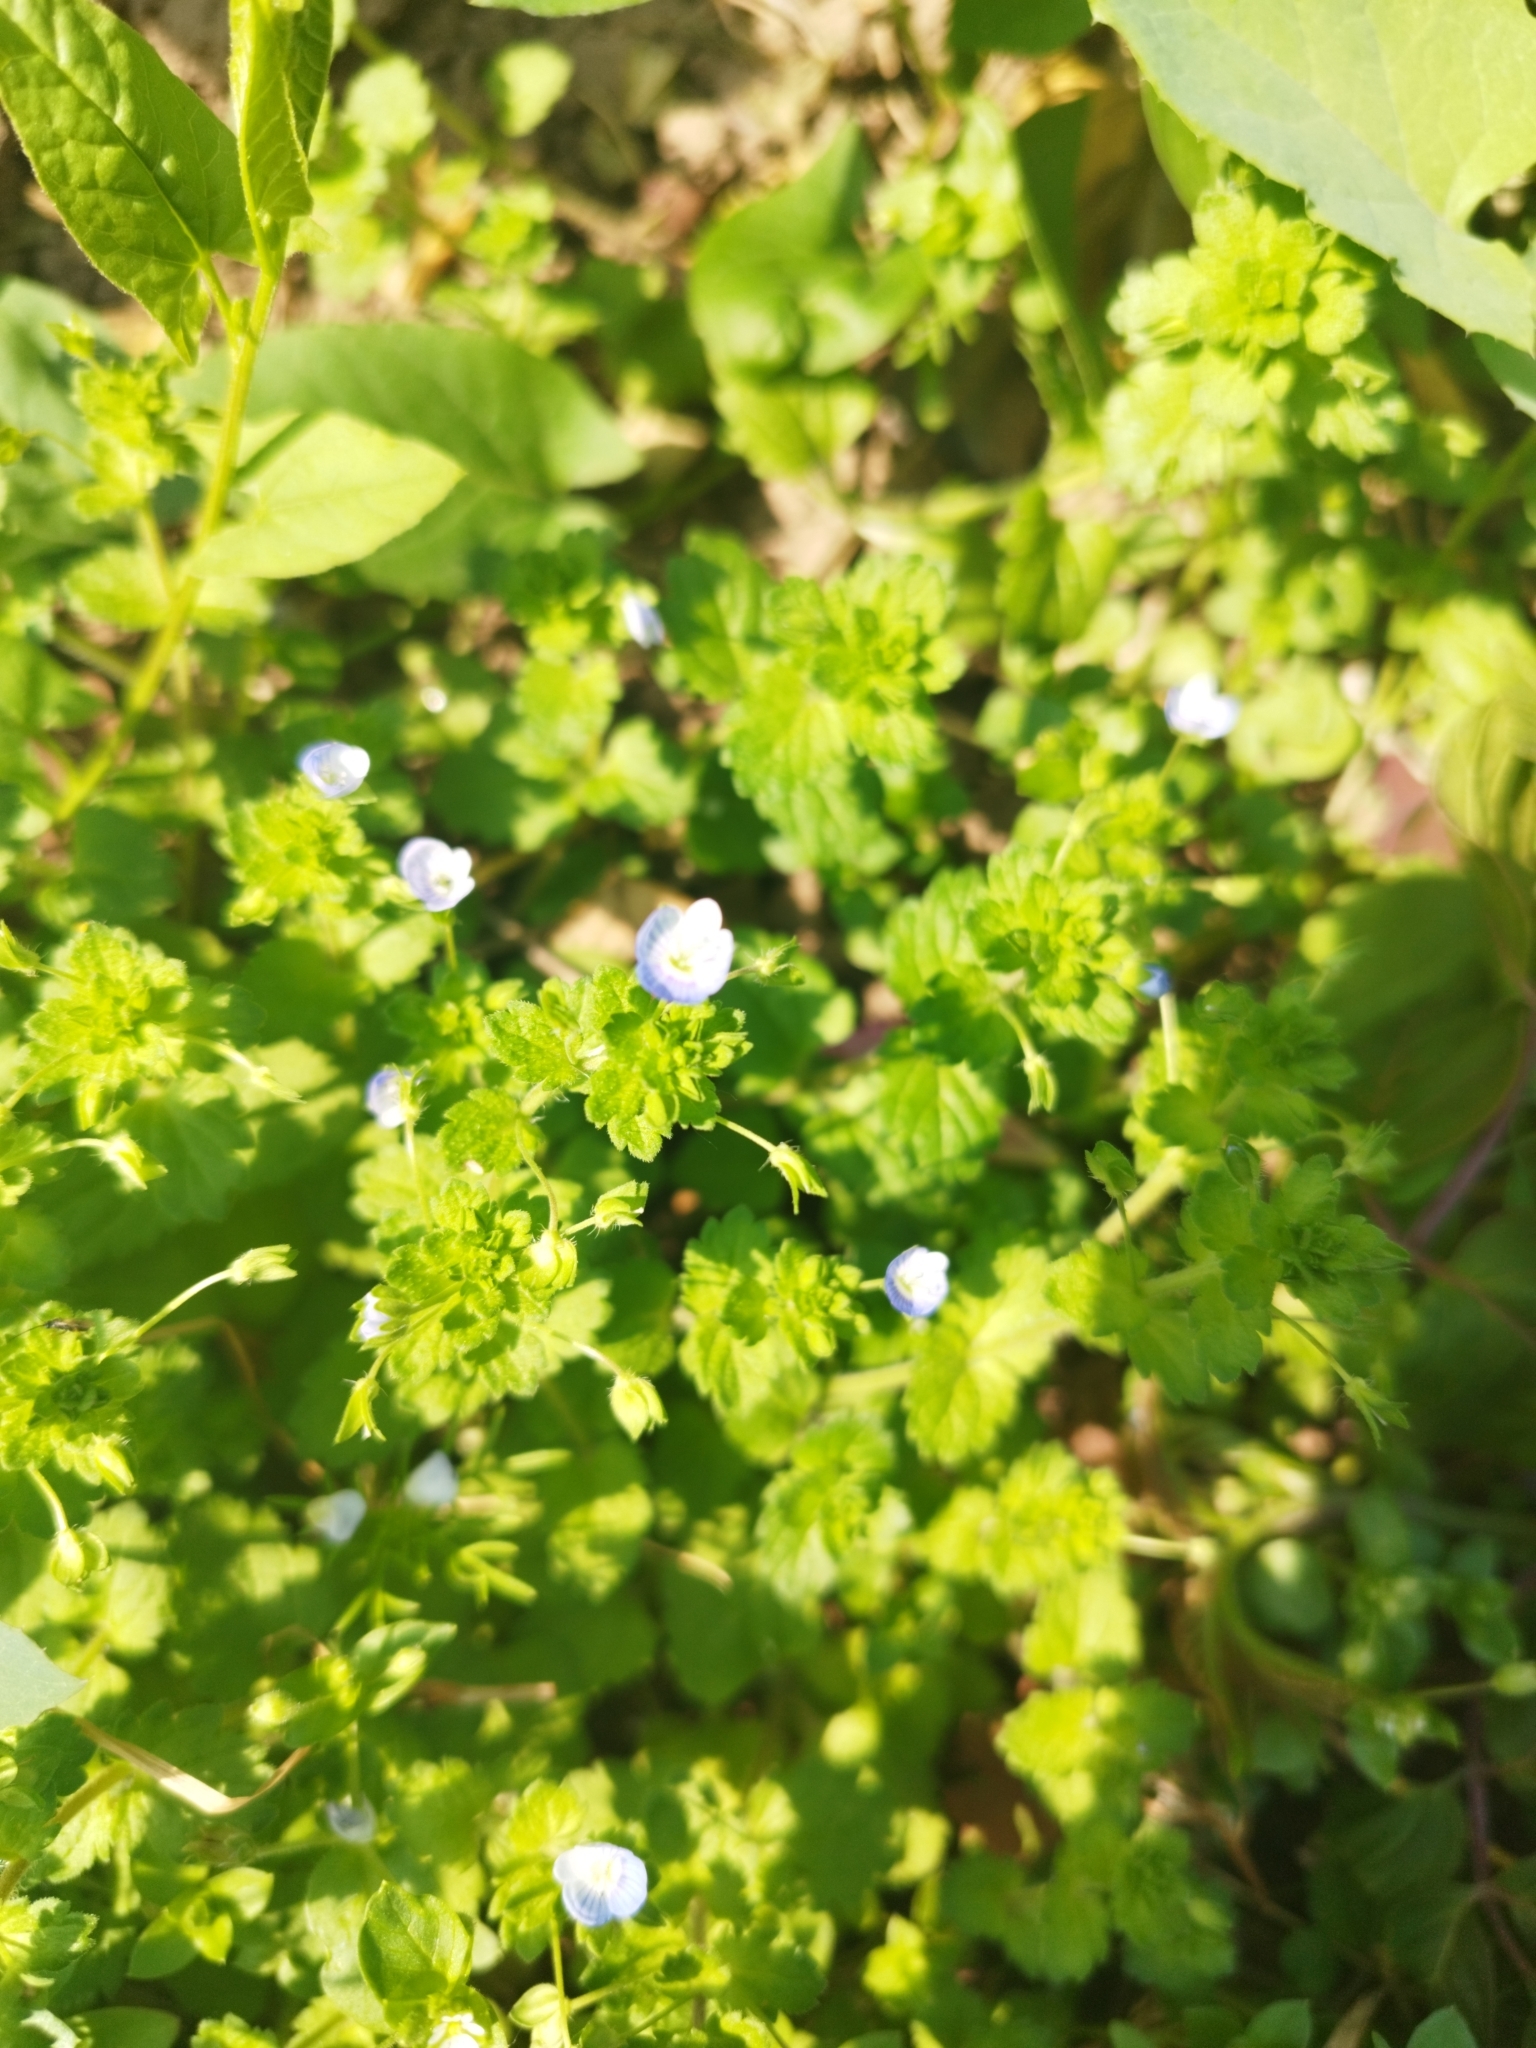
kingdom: Plantae
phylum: Tracheophyta
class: Magnoliopsida
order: Lamiales
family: Plantaginaceae
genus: Veronica
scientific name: Veronica persica
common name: Common field-speedwell
